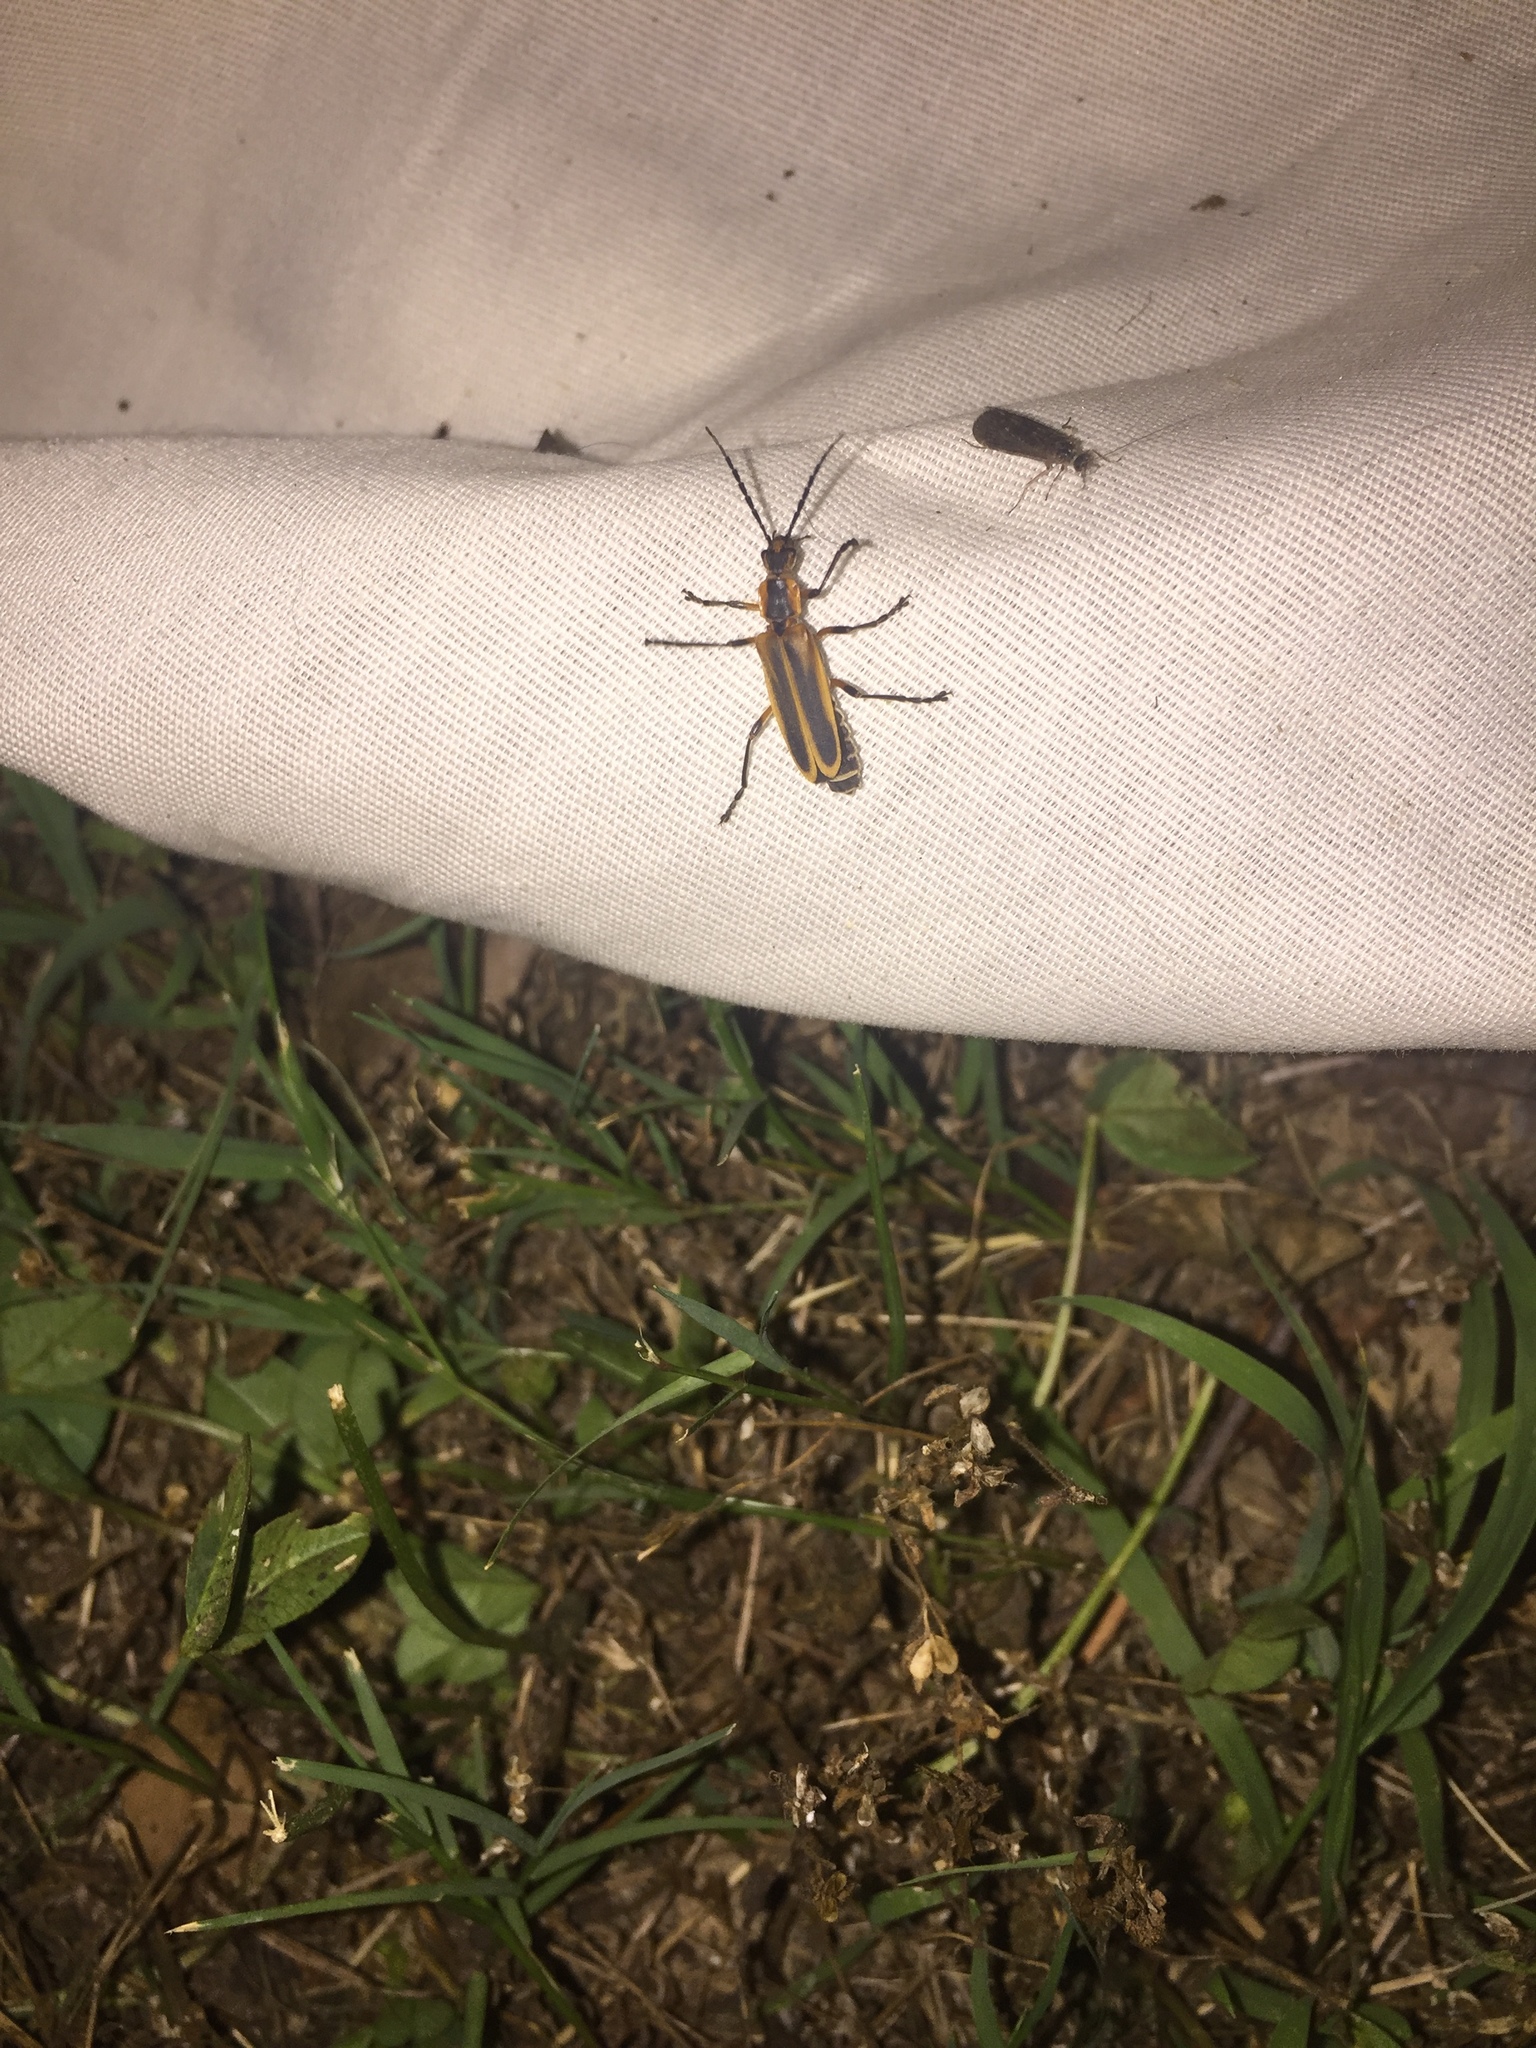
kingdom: Animalia
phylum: Arthropoda
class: Insecta
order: Coleoptera
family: Cantharidae
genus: Chauliognathus
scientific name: Chauliognathus marginatus
